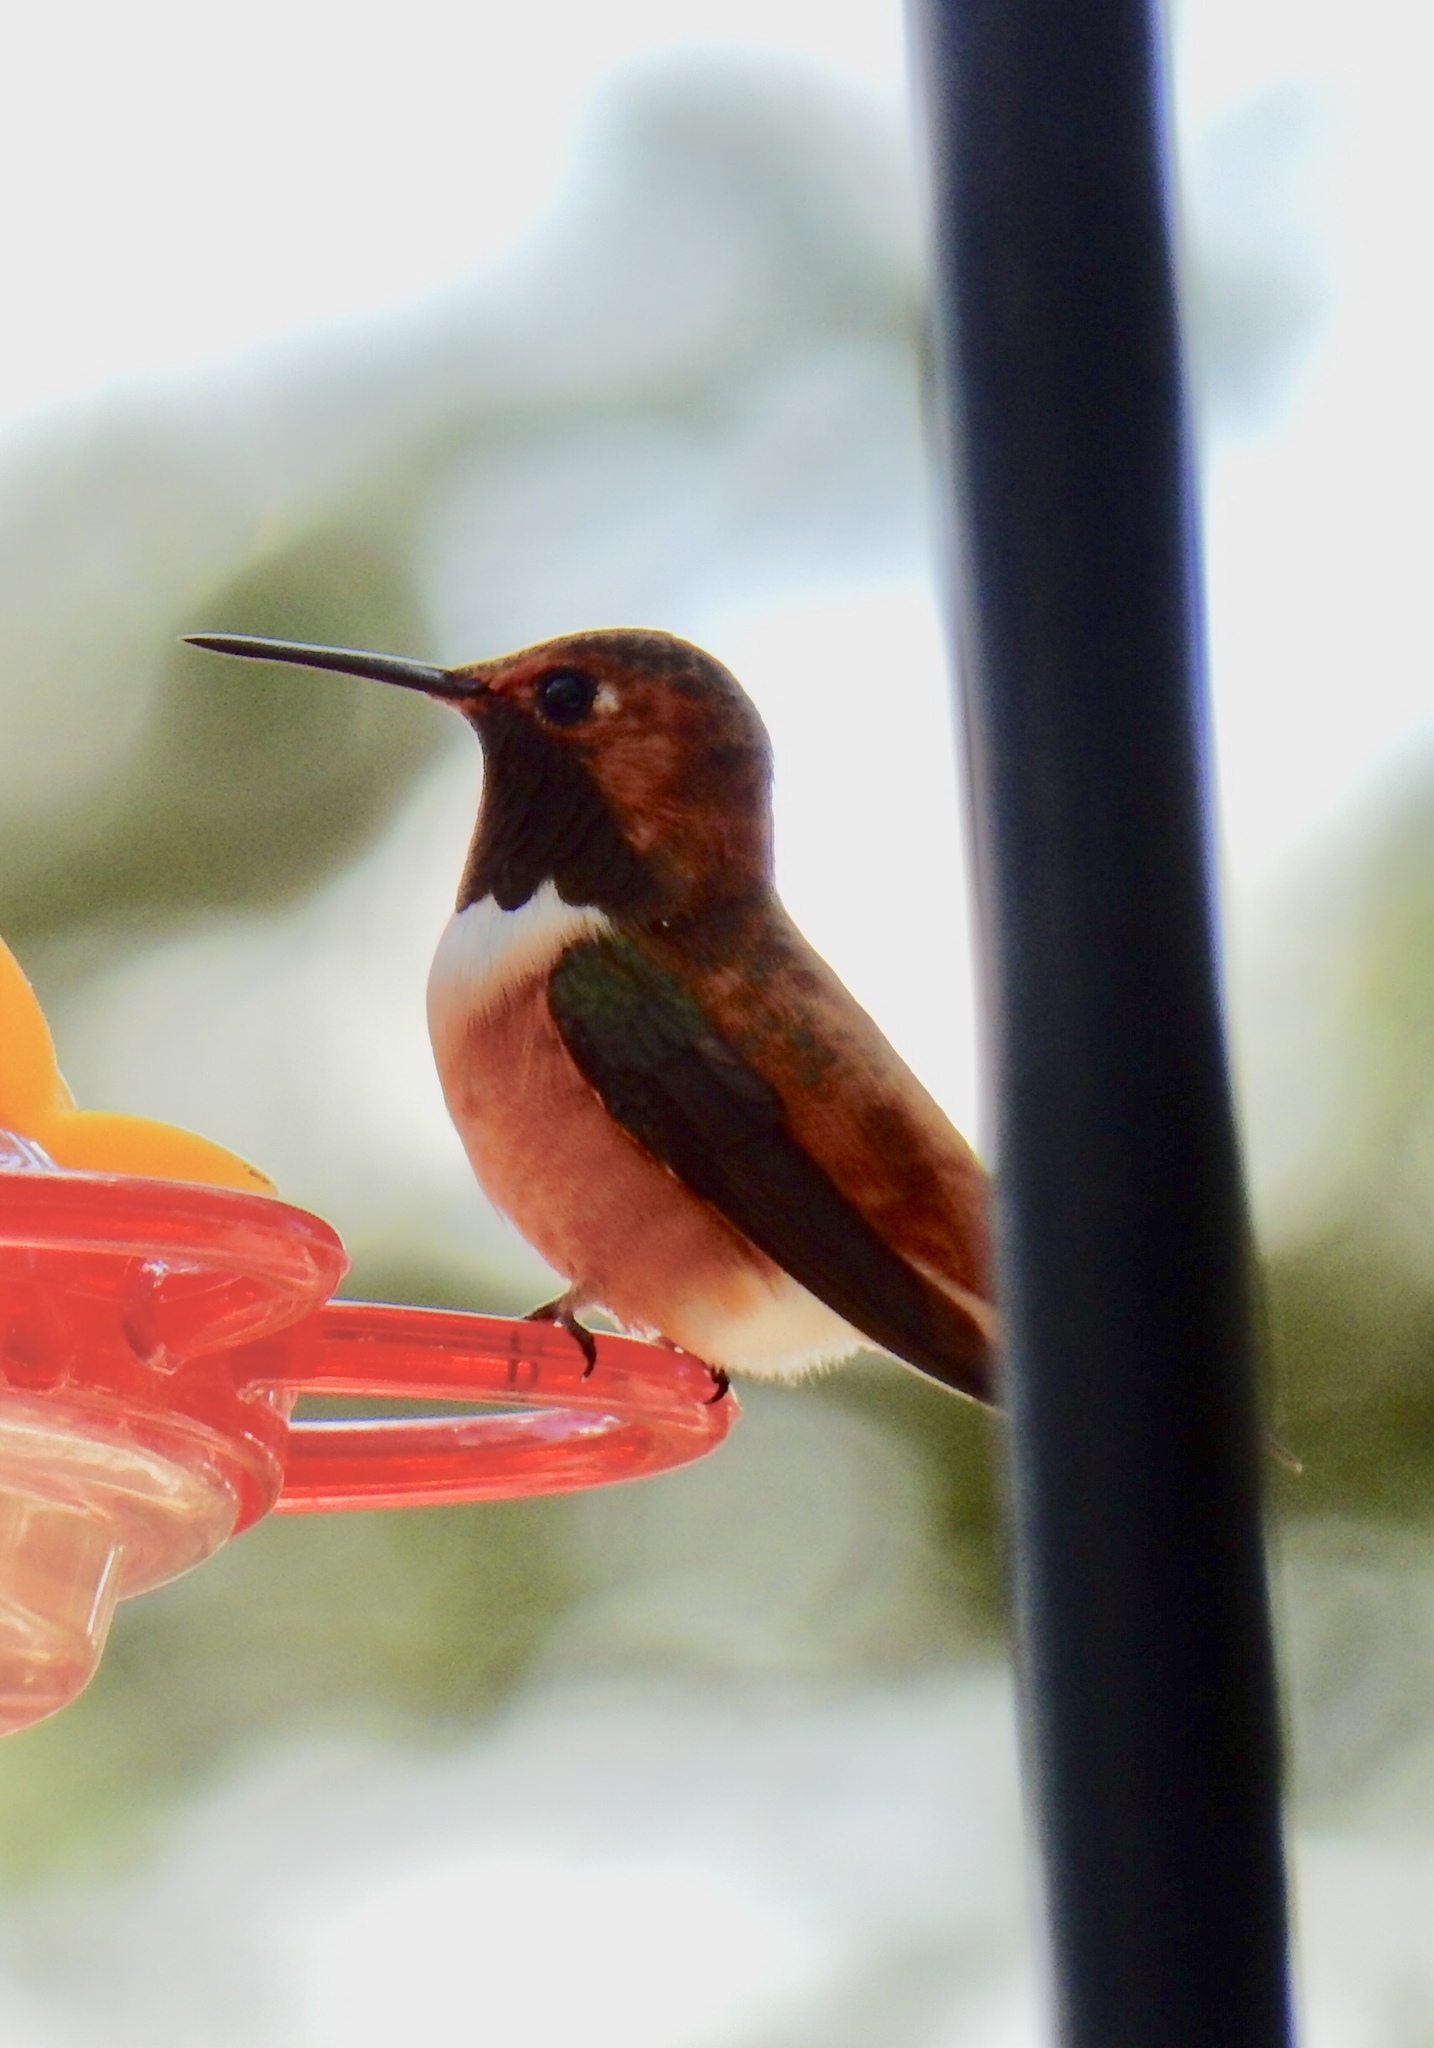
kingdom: Animalia
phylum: Chordata
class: Aves
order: Apodiformes
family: Trochilidae
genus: Selasphorus
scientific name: Selasphorus rufus
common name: Rufous hummingbird
